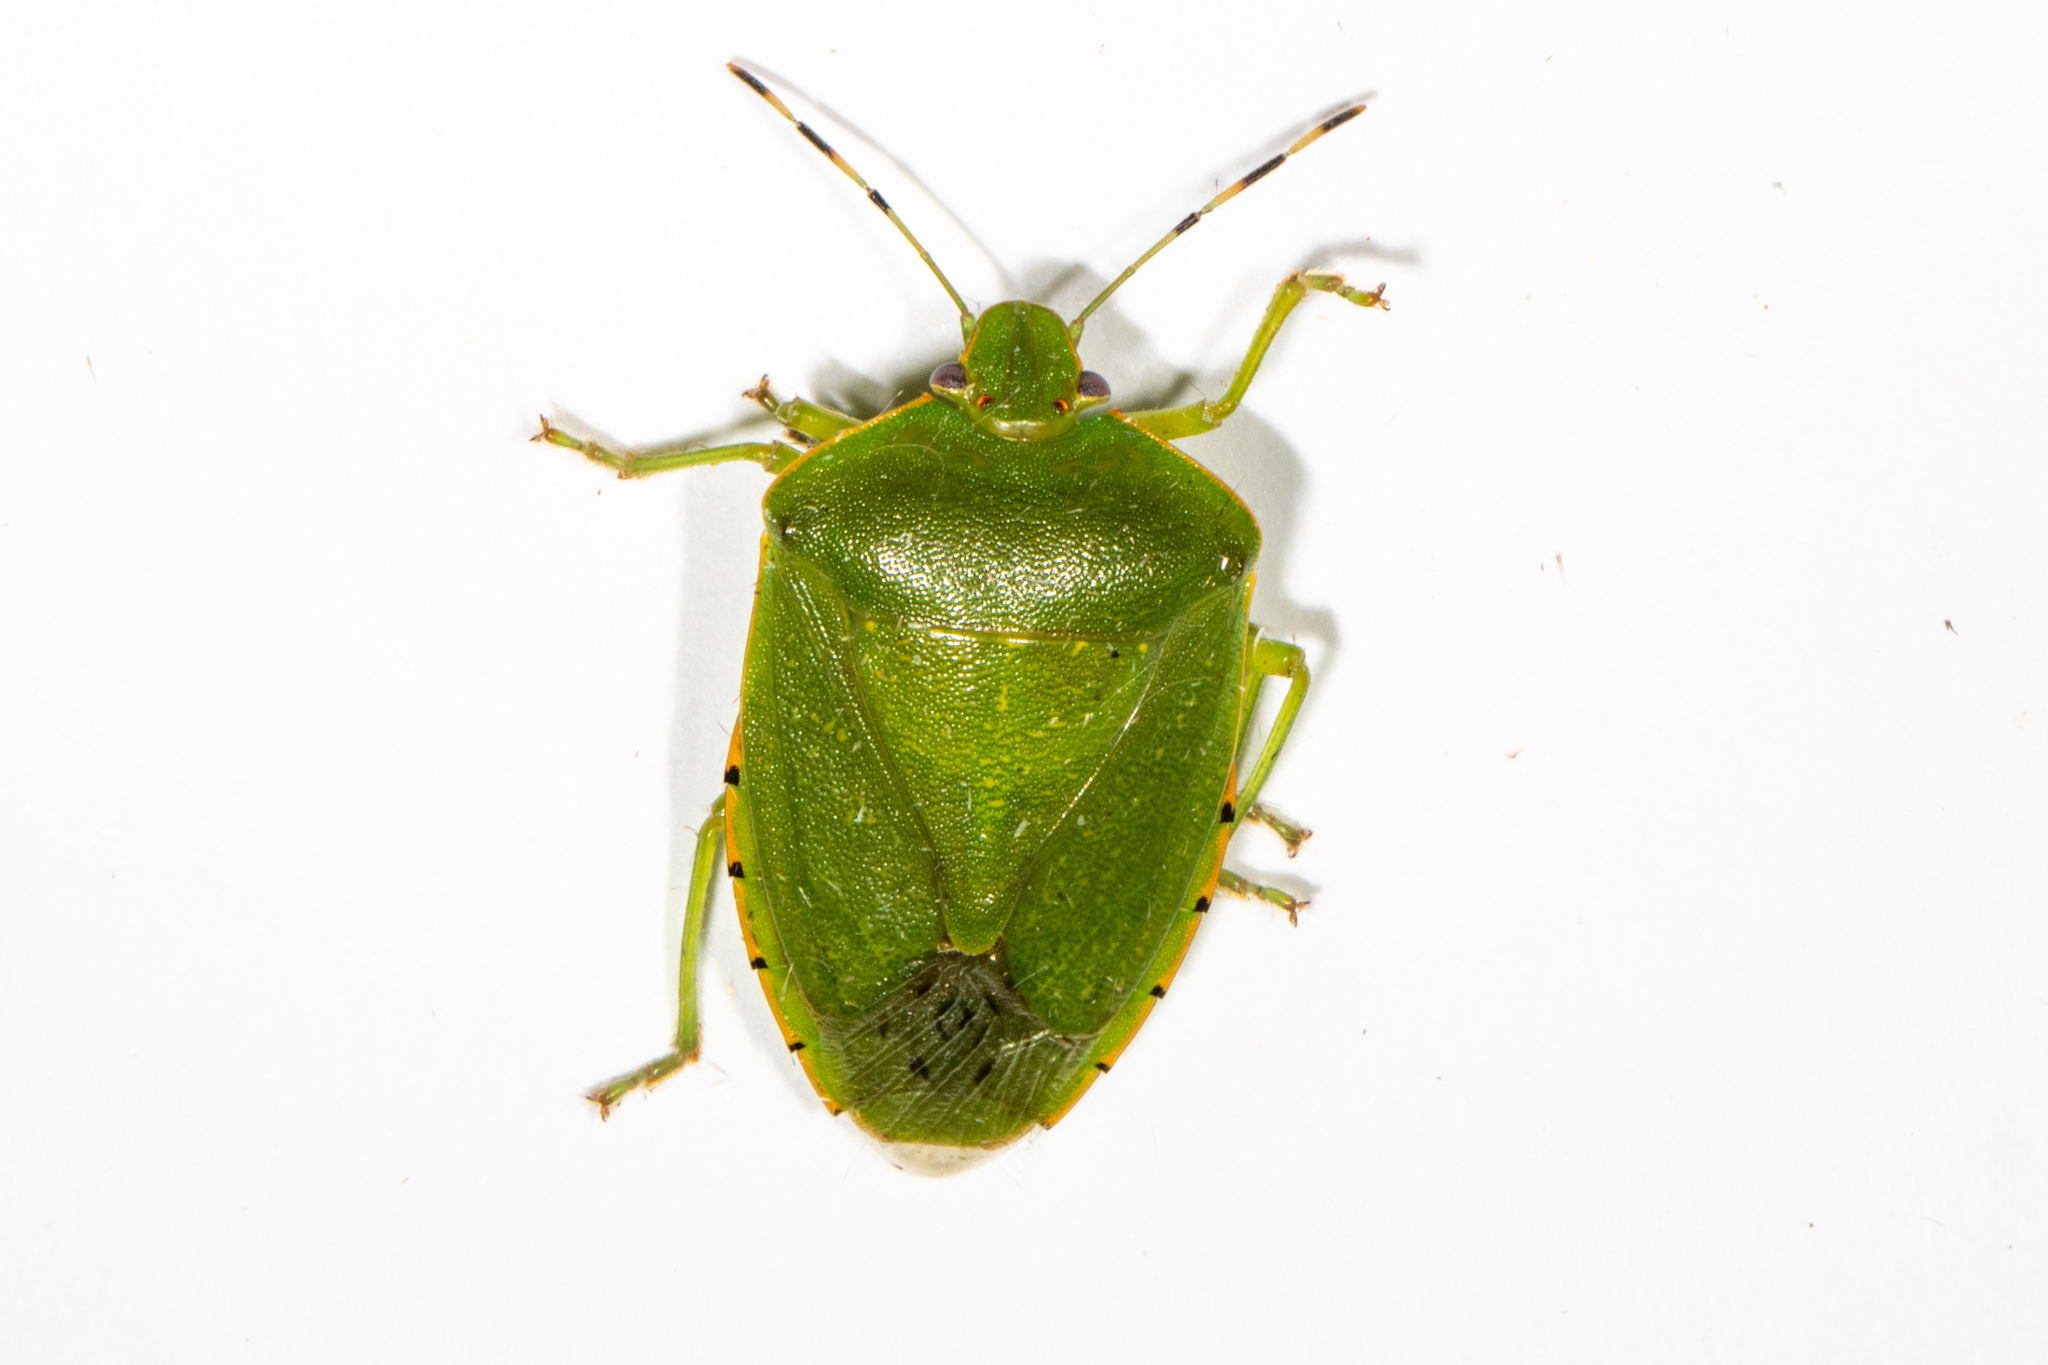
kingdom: Animalia
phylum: Arthropoda
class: Insecta
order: Hemiptera
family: Pentatomidae
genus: Chinavia
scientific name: Chinavia hilaris
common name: Green stink bug
